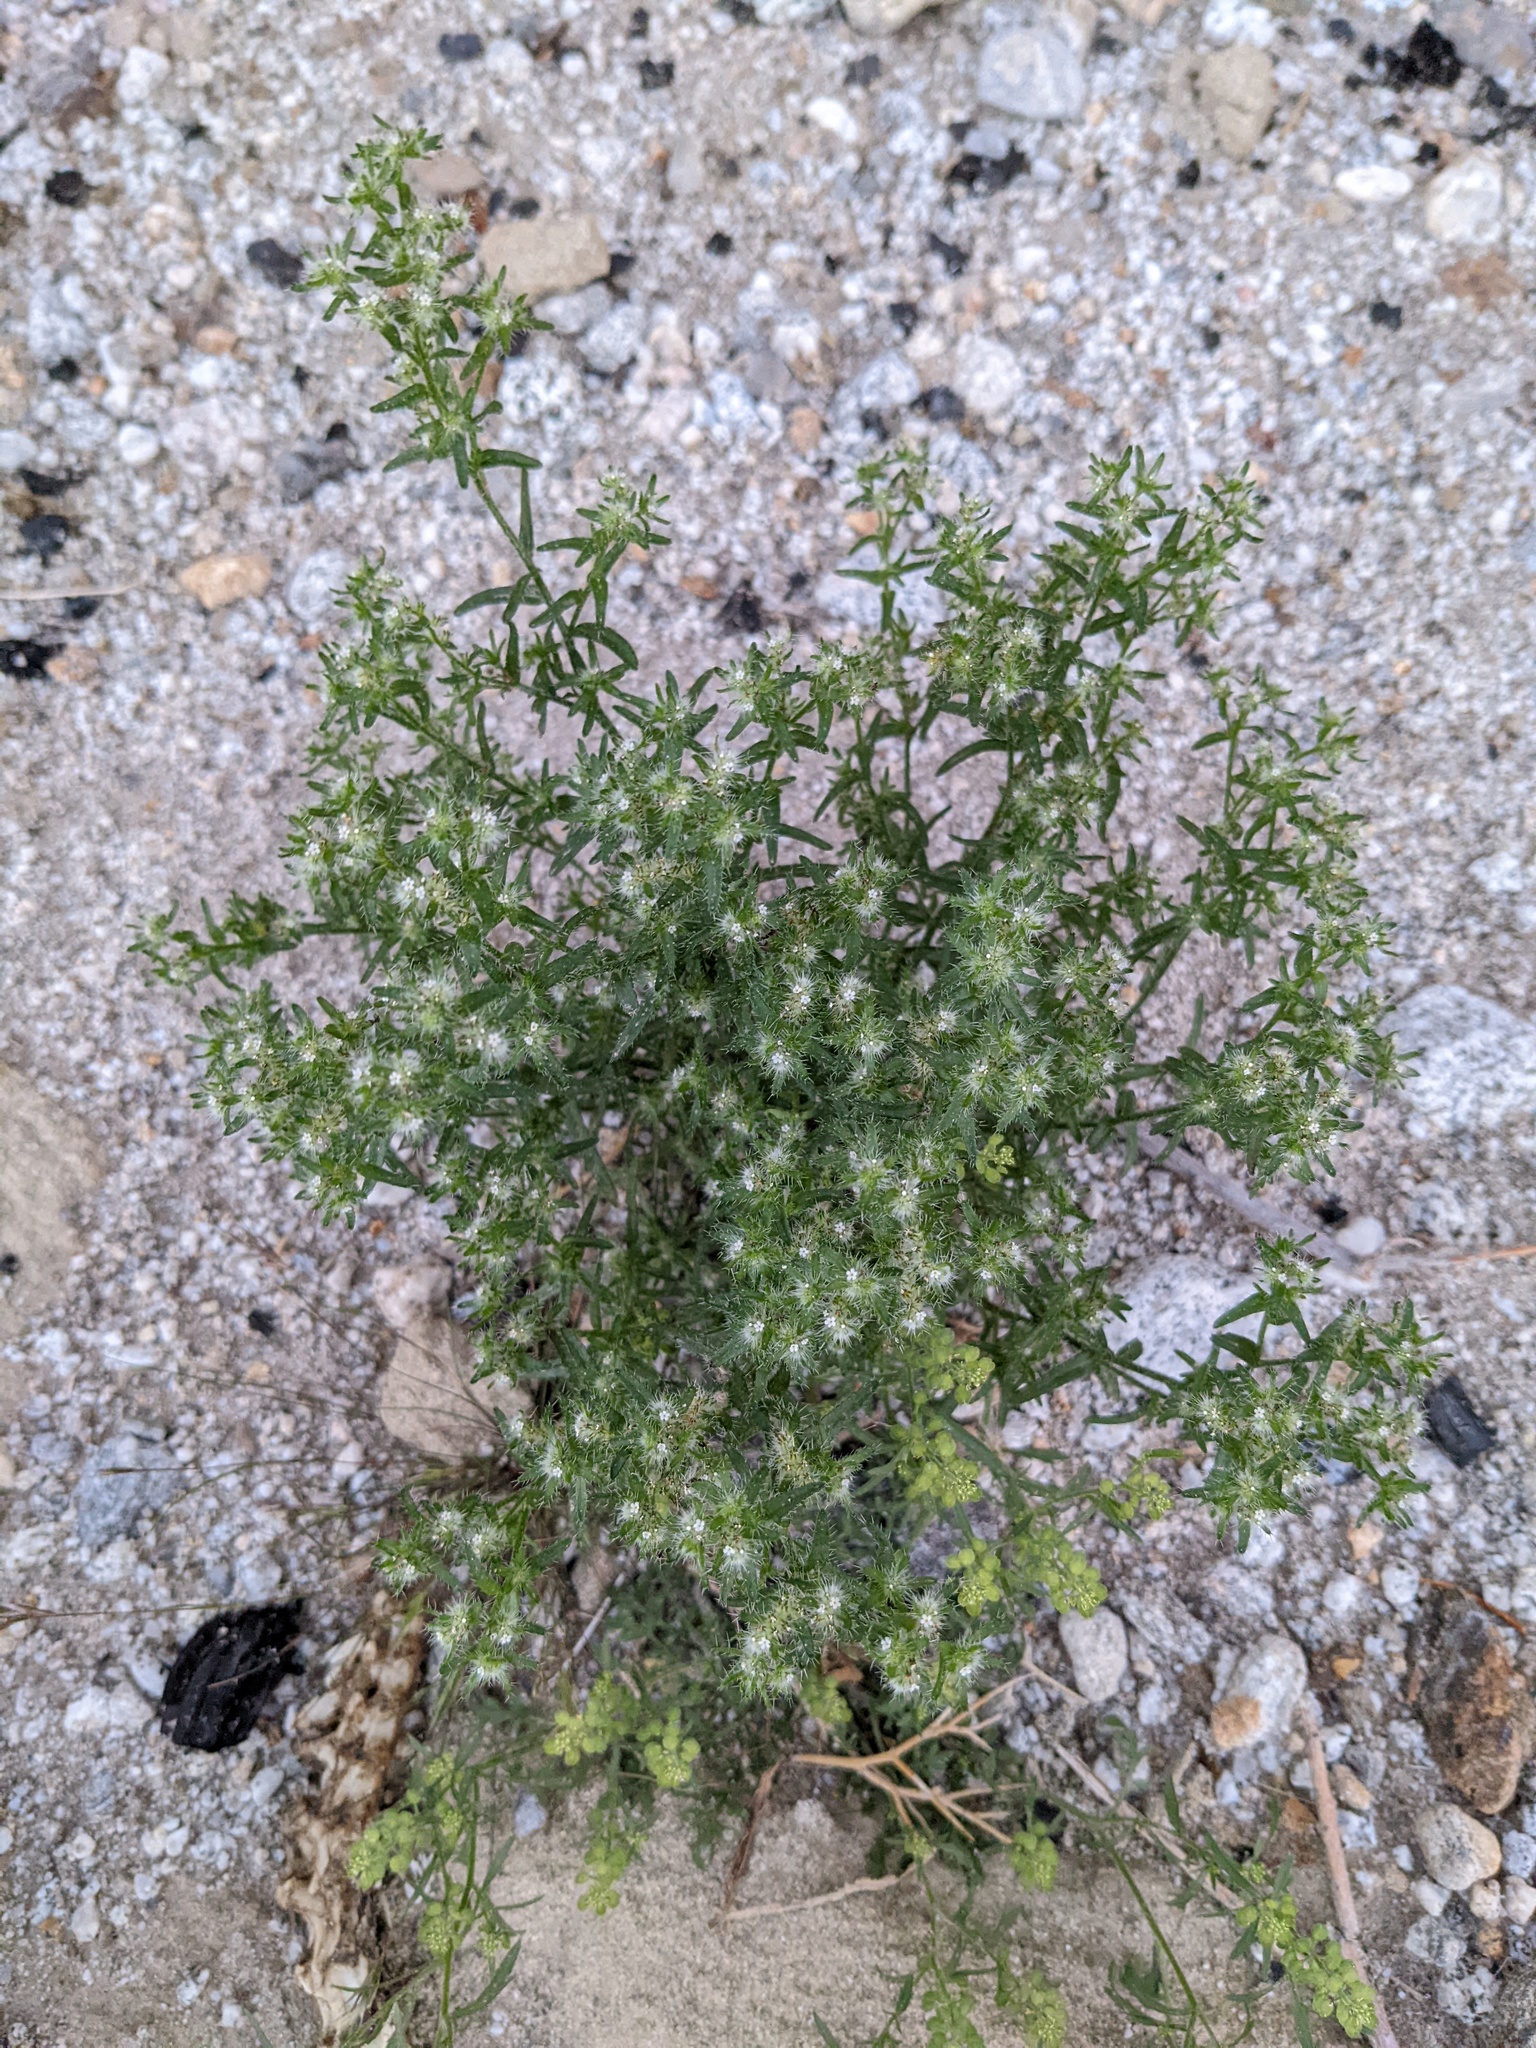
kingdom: Plantae
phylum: Tracheophyta
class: Magnoliopsida
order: Boraginales
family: Boraginaceae
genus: Cryptantha
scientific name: Cryptantha maritima
